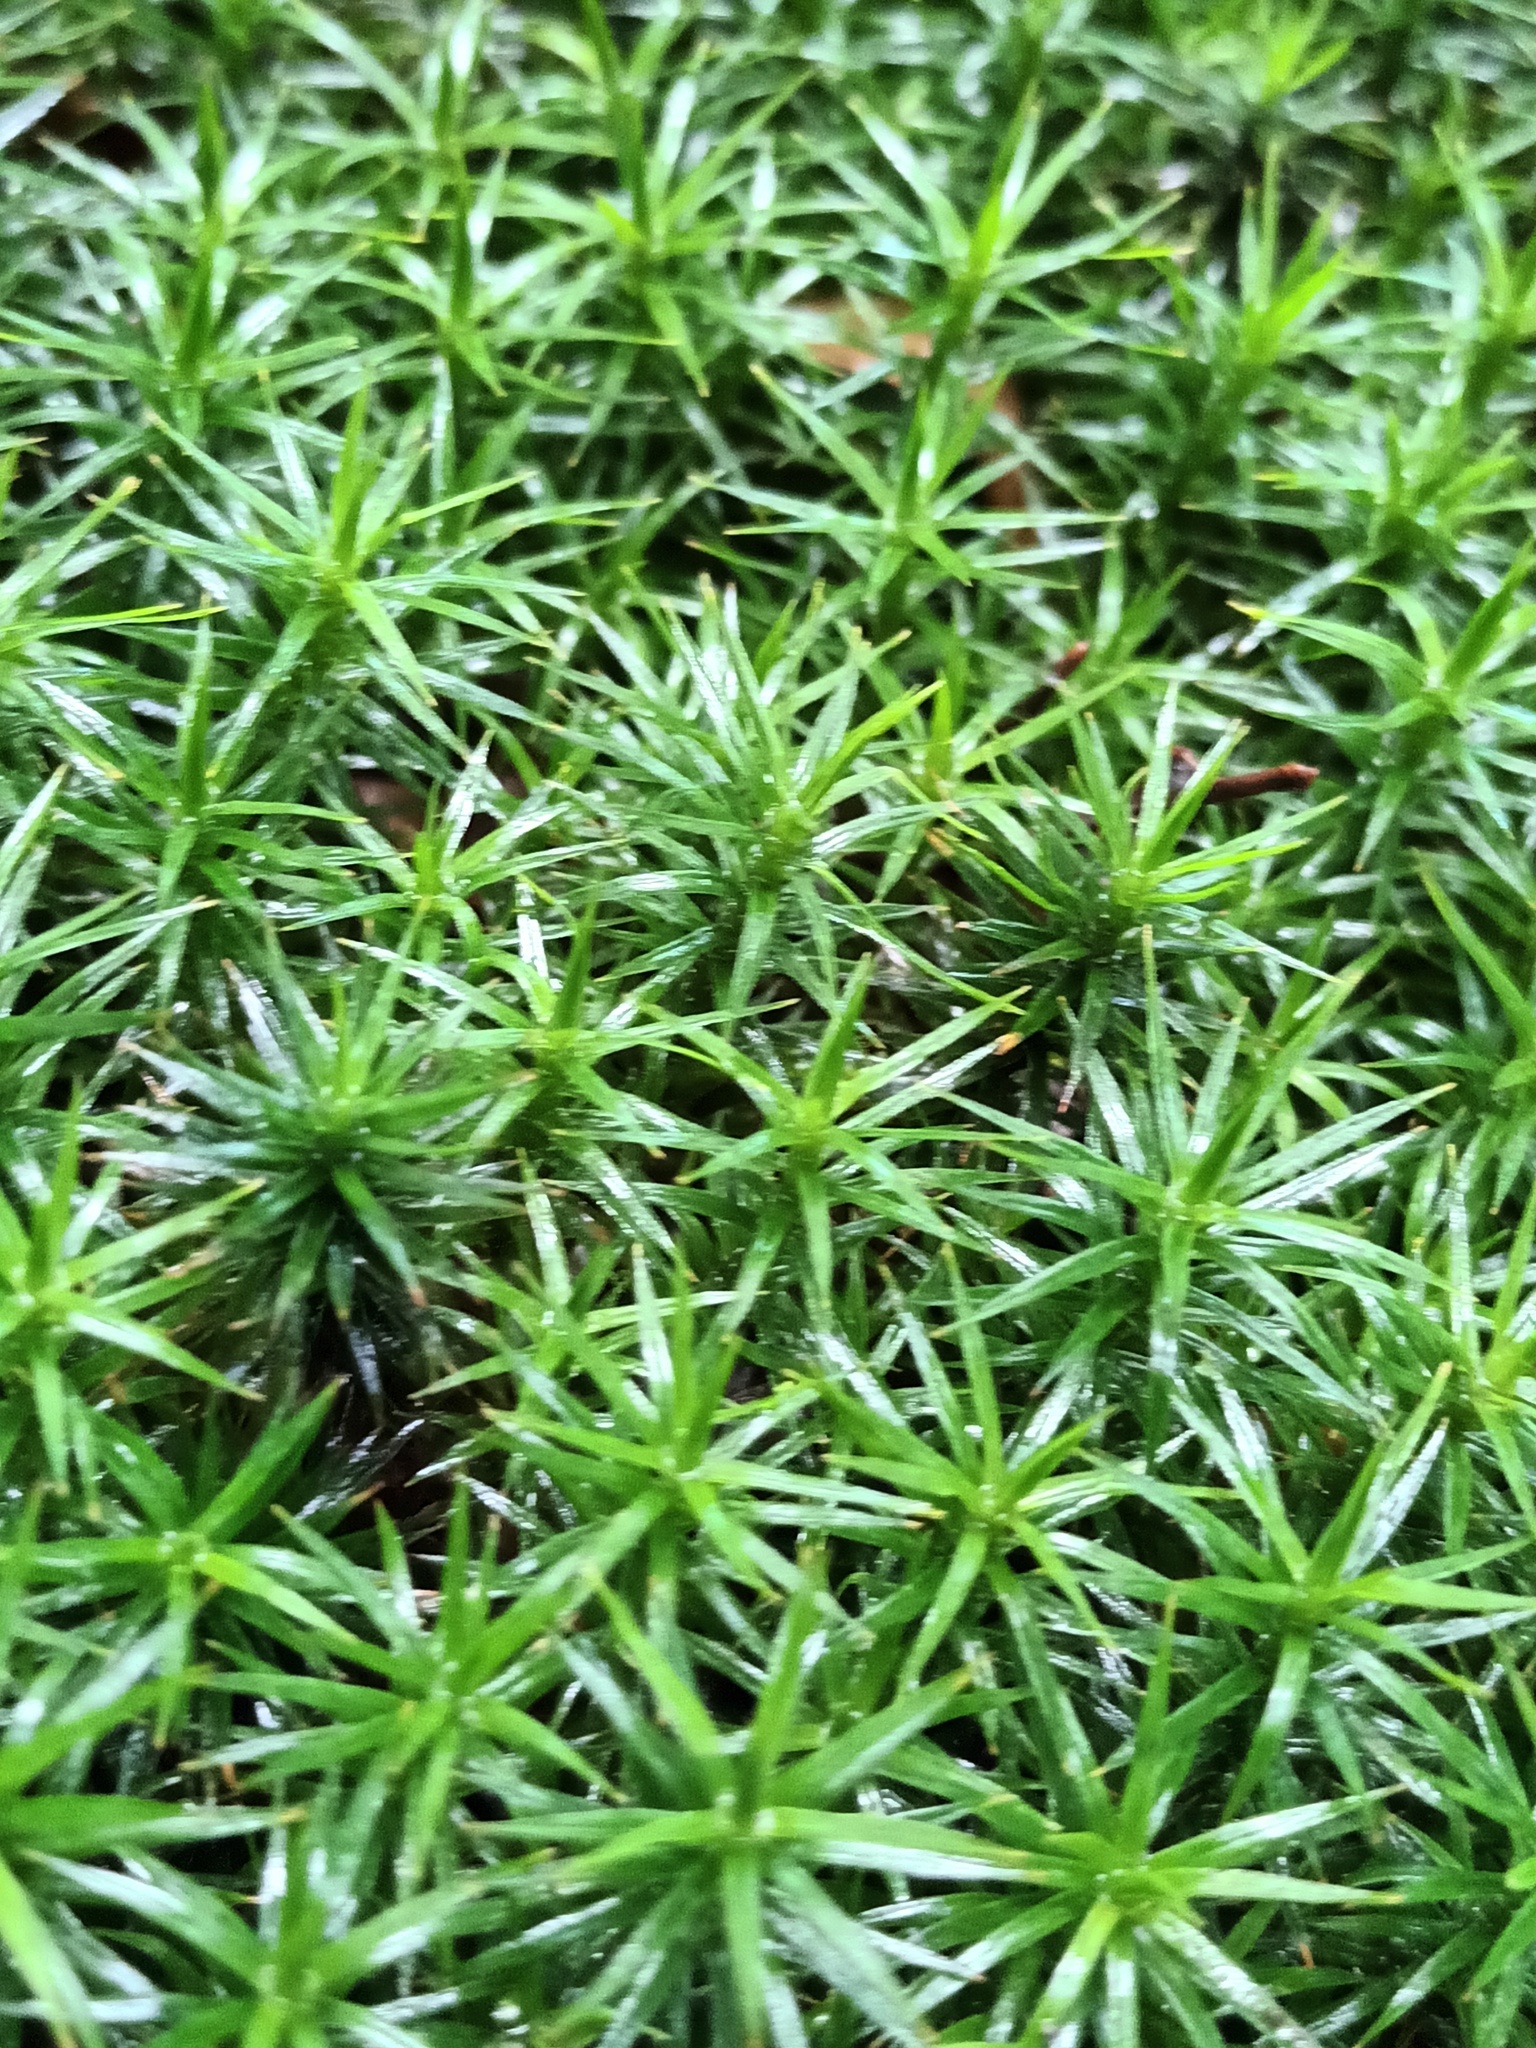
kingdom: Plantae
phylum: Bryophyta
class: Polytrichopsida
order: Polytrichales
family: Polytrichaceae
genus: Polytrichum
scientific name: Polytrichum formosum
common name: Bank haircap moss
